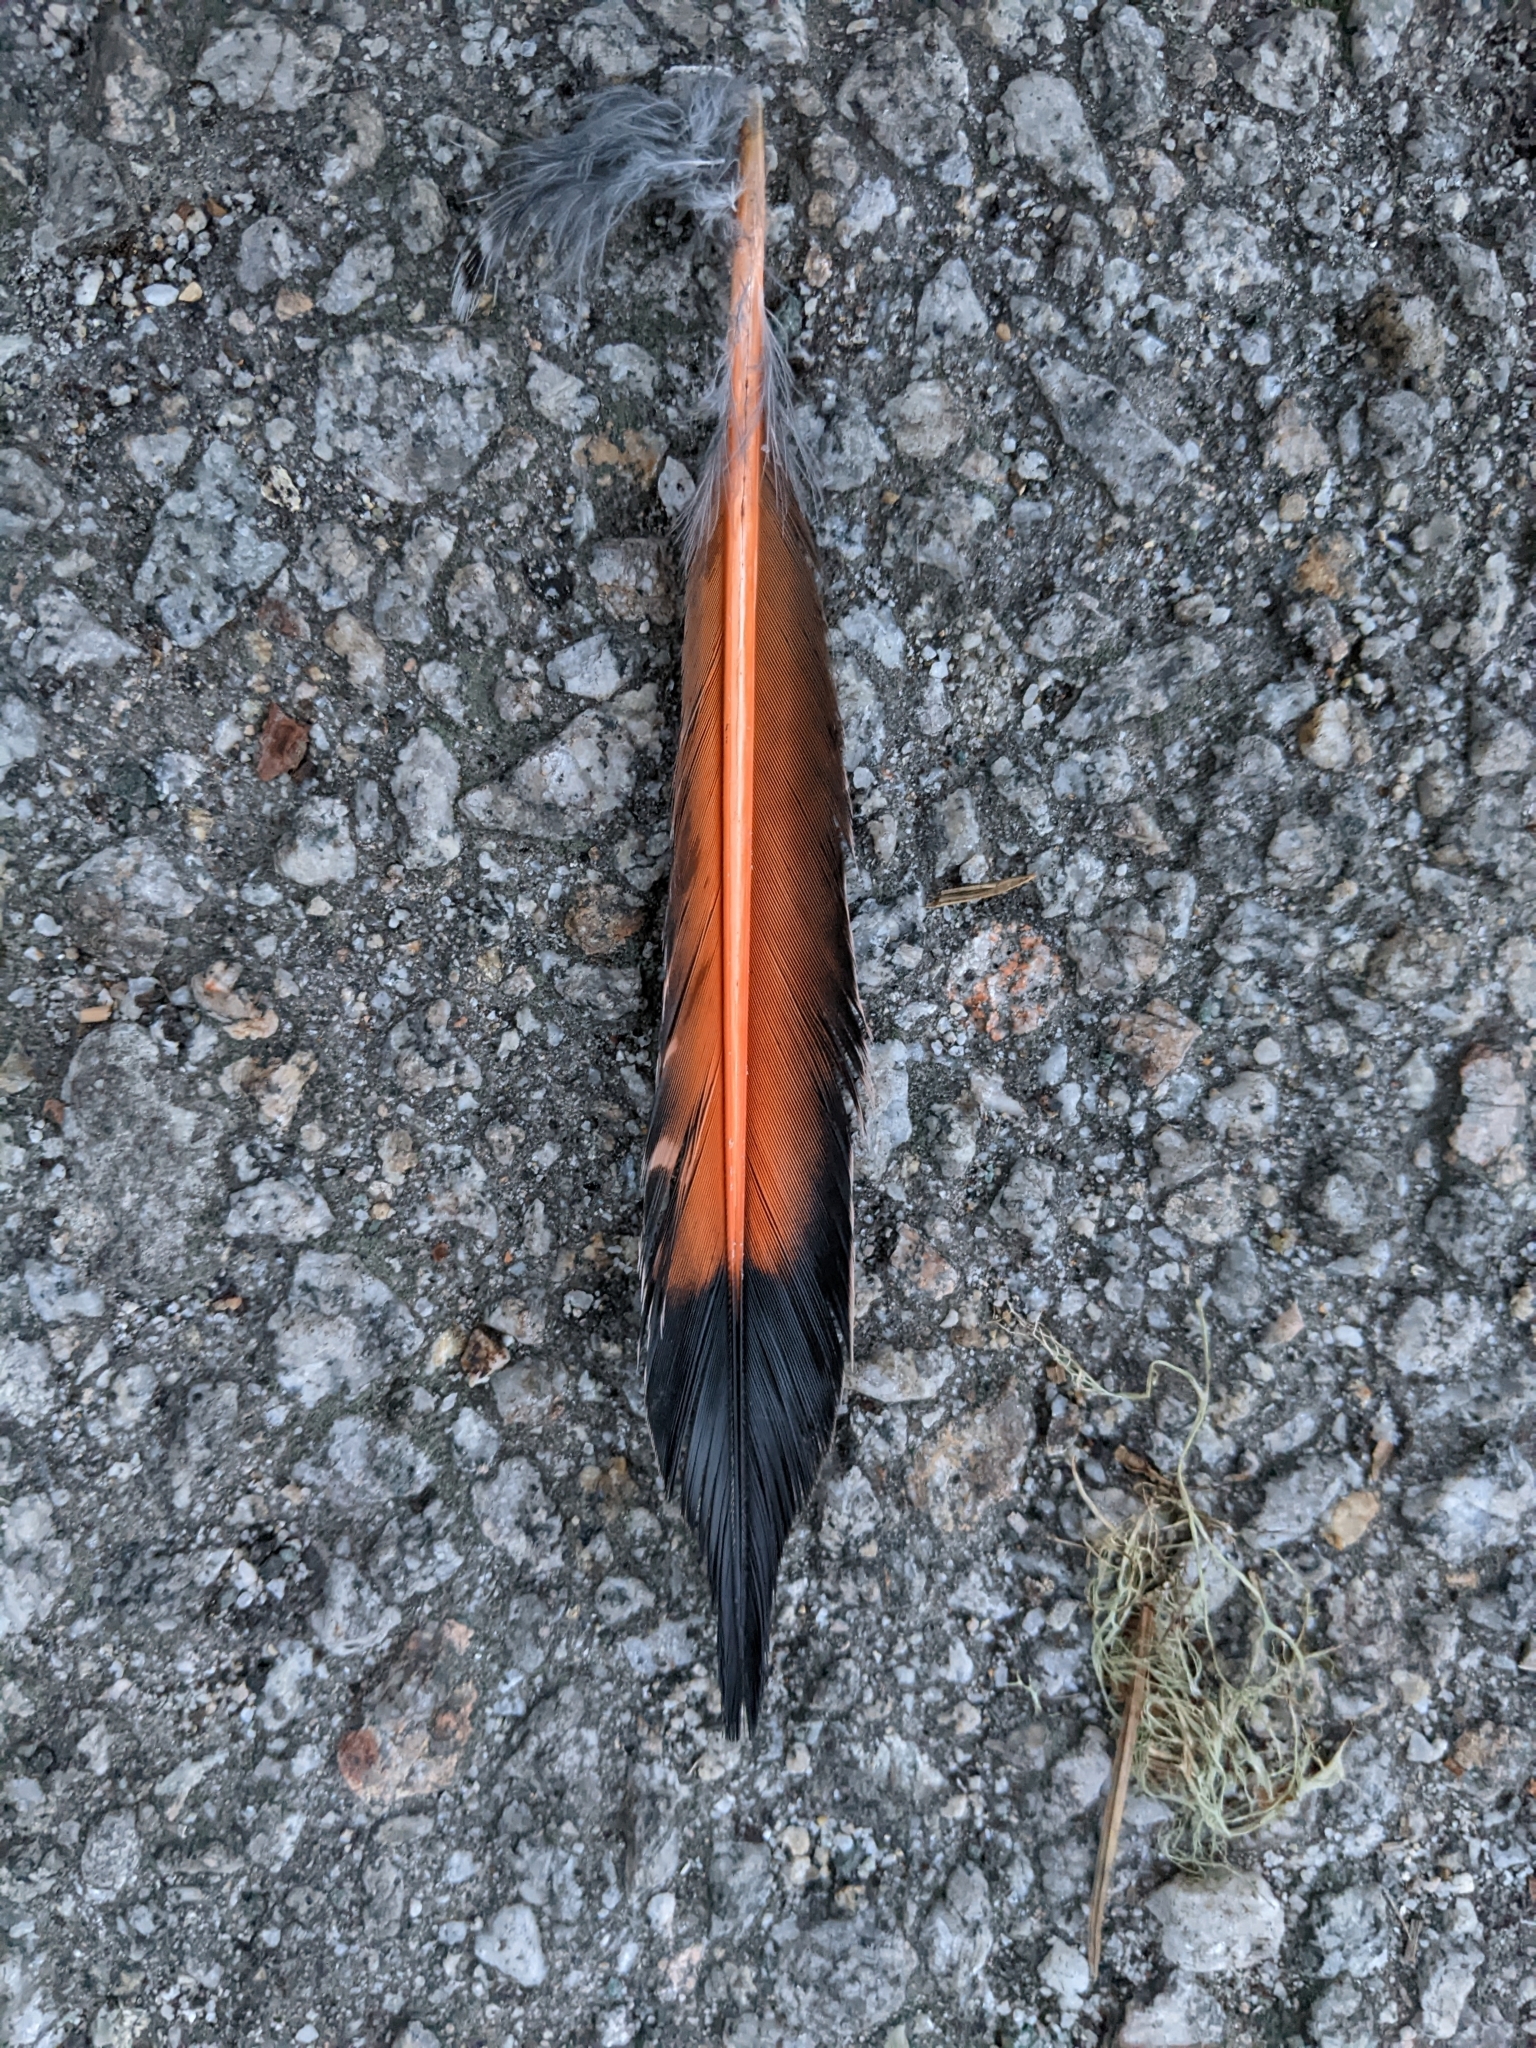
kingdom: Animalia
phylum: Chordata
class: Aves
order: Piciformes
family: Picidae
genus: Colaptes
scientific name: Colaptes auratus
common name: Northern flicker
